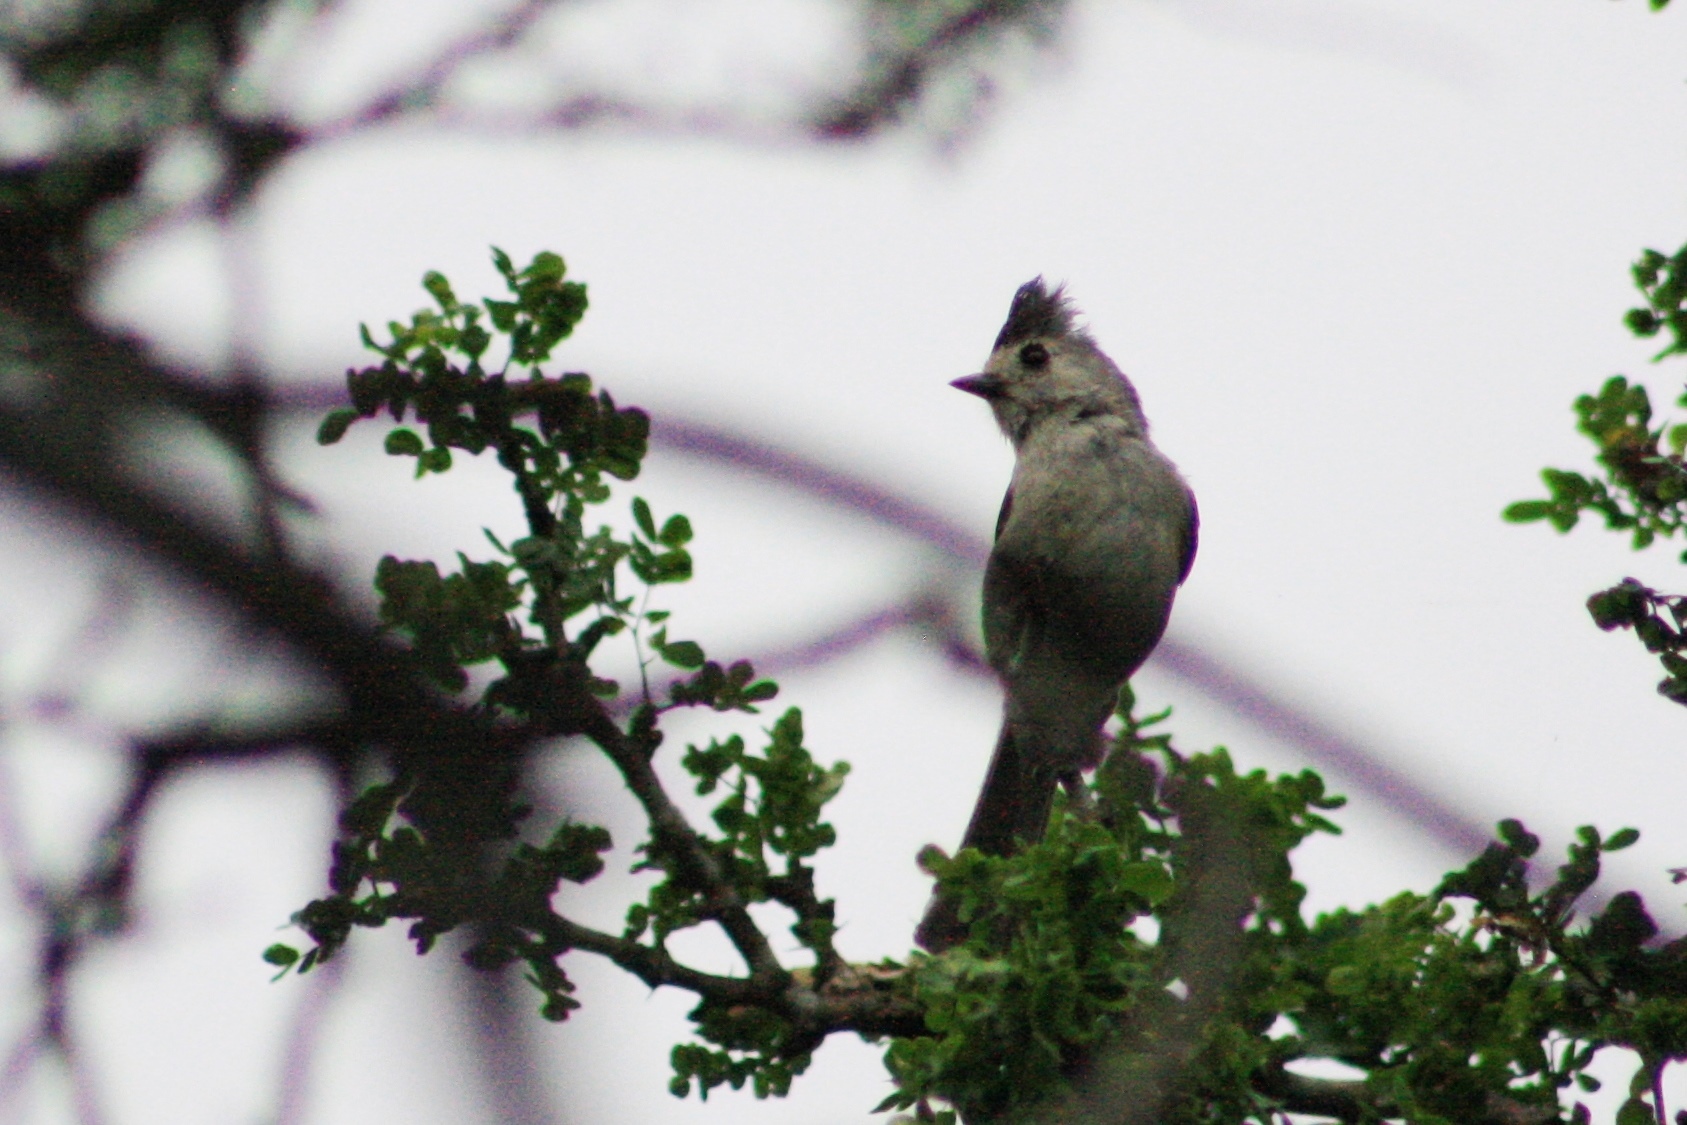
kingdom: Animalia
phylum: Chordata
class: Aves
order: Passeriformes
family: Paridae
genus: Baeolophus
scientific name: Baeolophus atricristatus
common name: Black-crested titmouse
